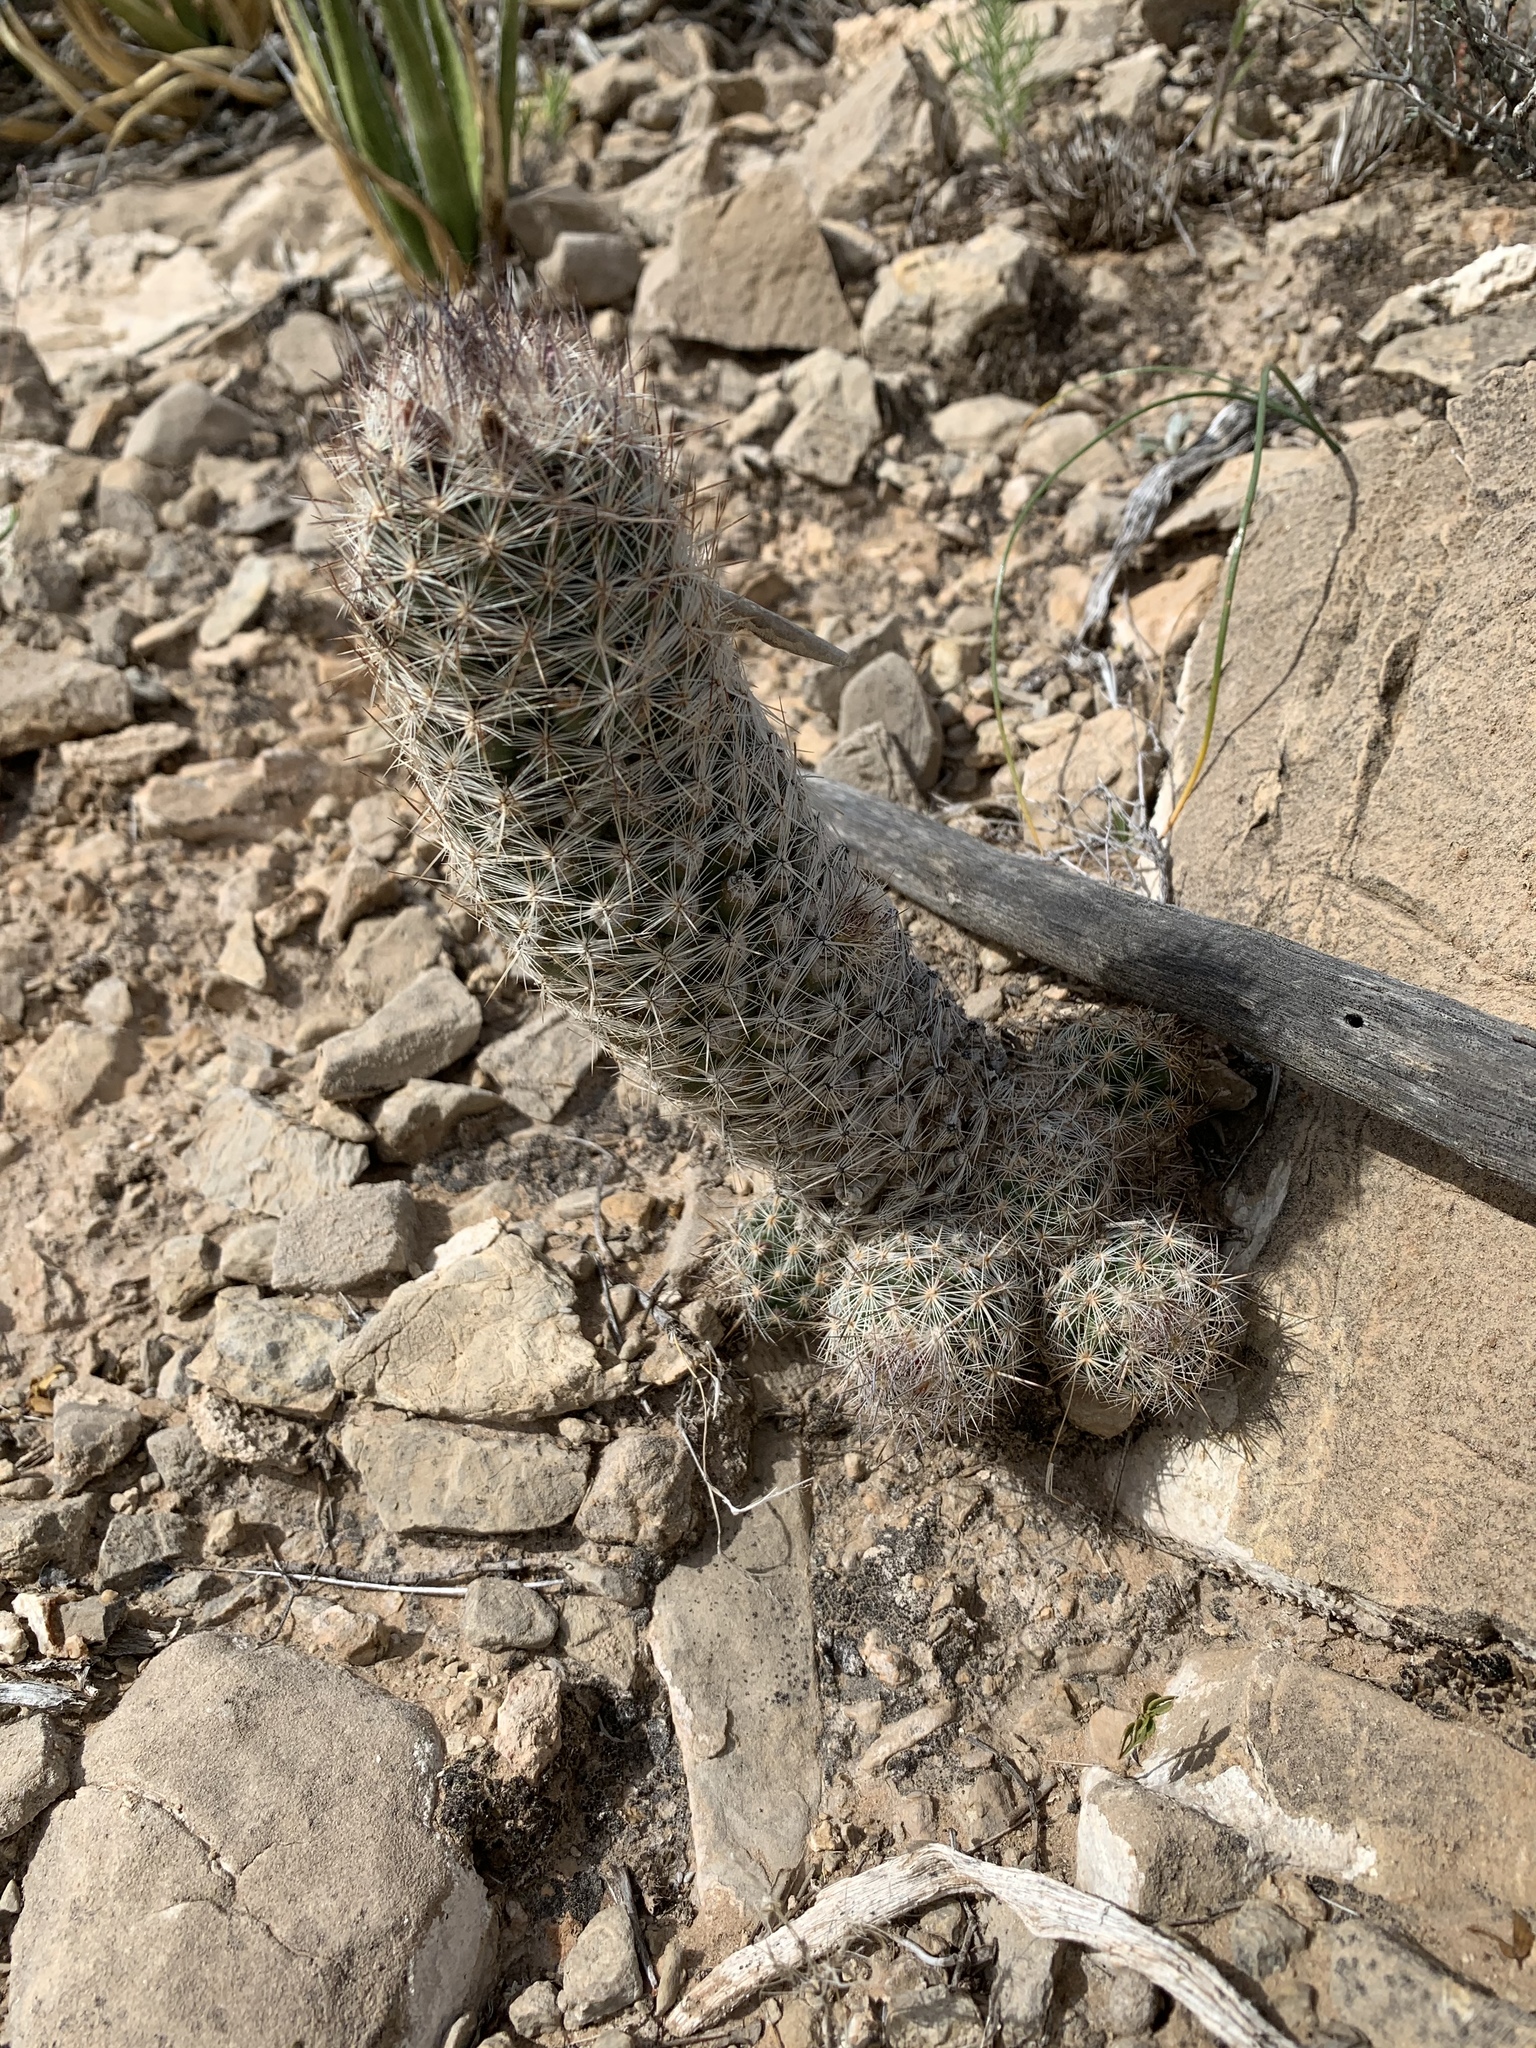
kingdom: Plantae
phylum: Tracheophyta
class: Magnoliopsida
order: Caryophyllales
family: Cactaceae
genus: Pelecyphora
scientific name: Pelecyphora tuberculosa
